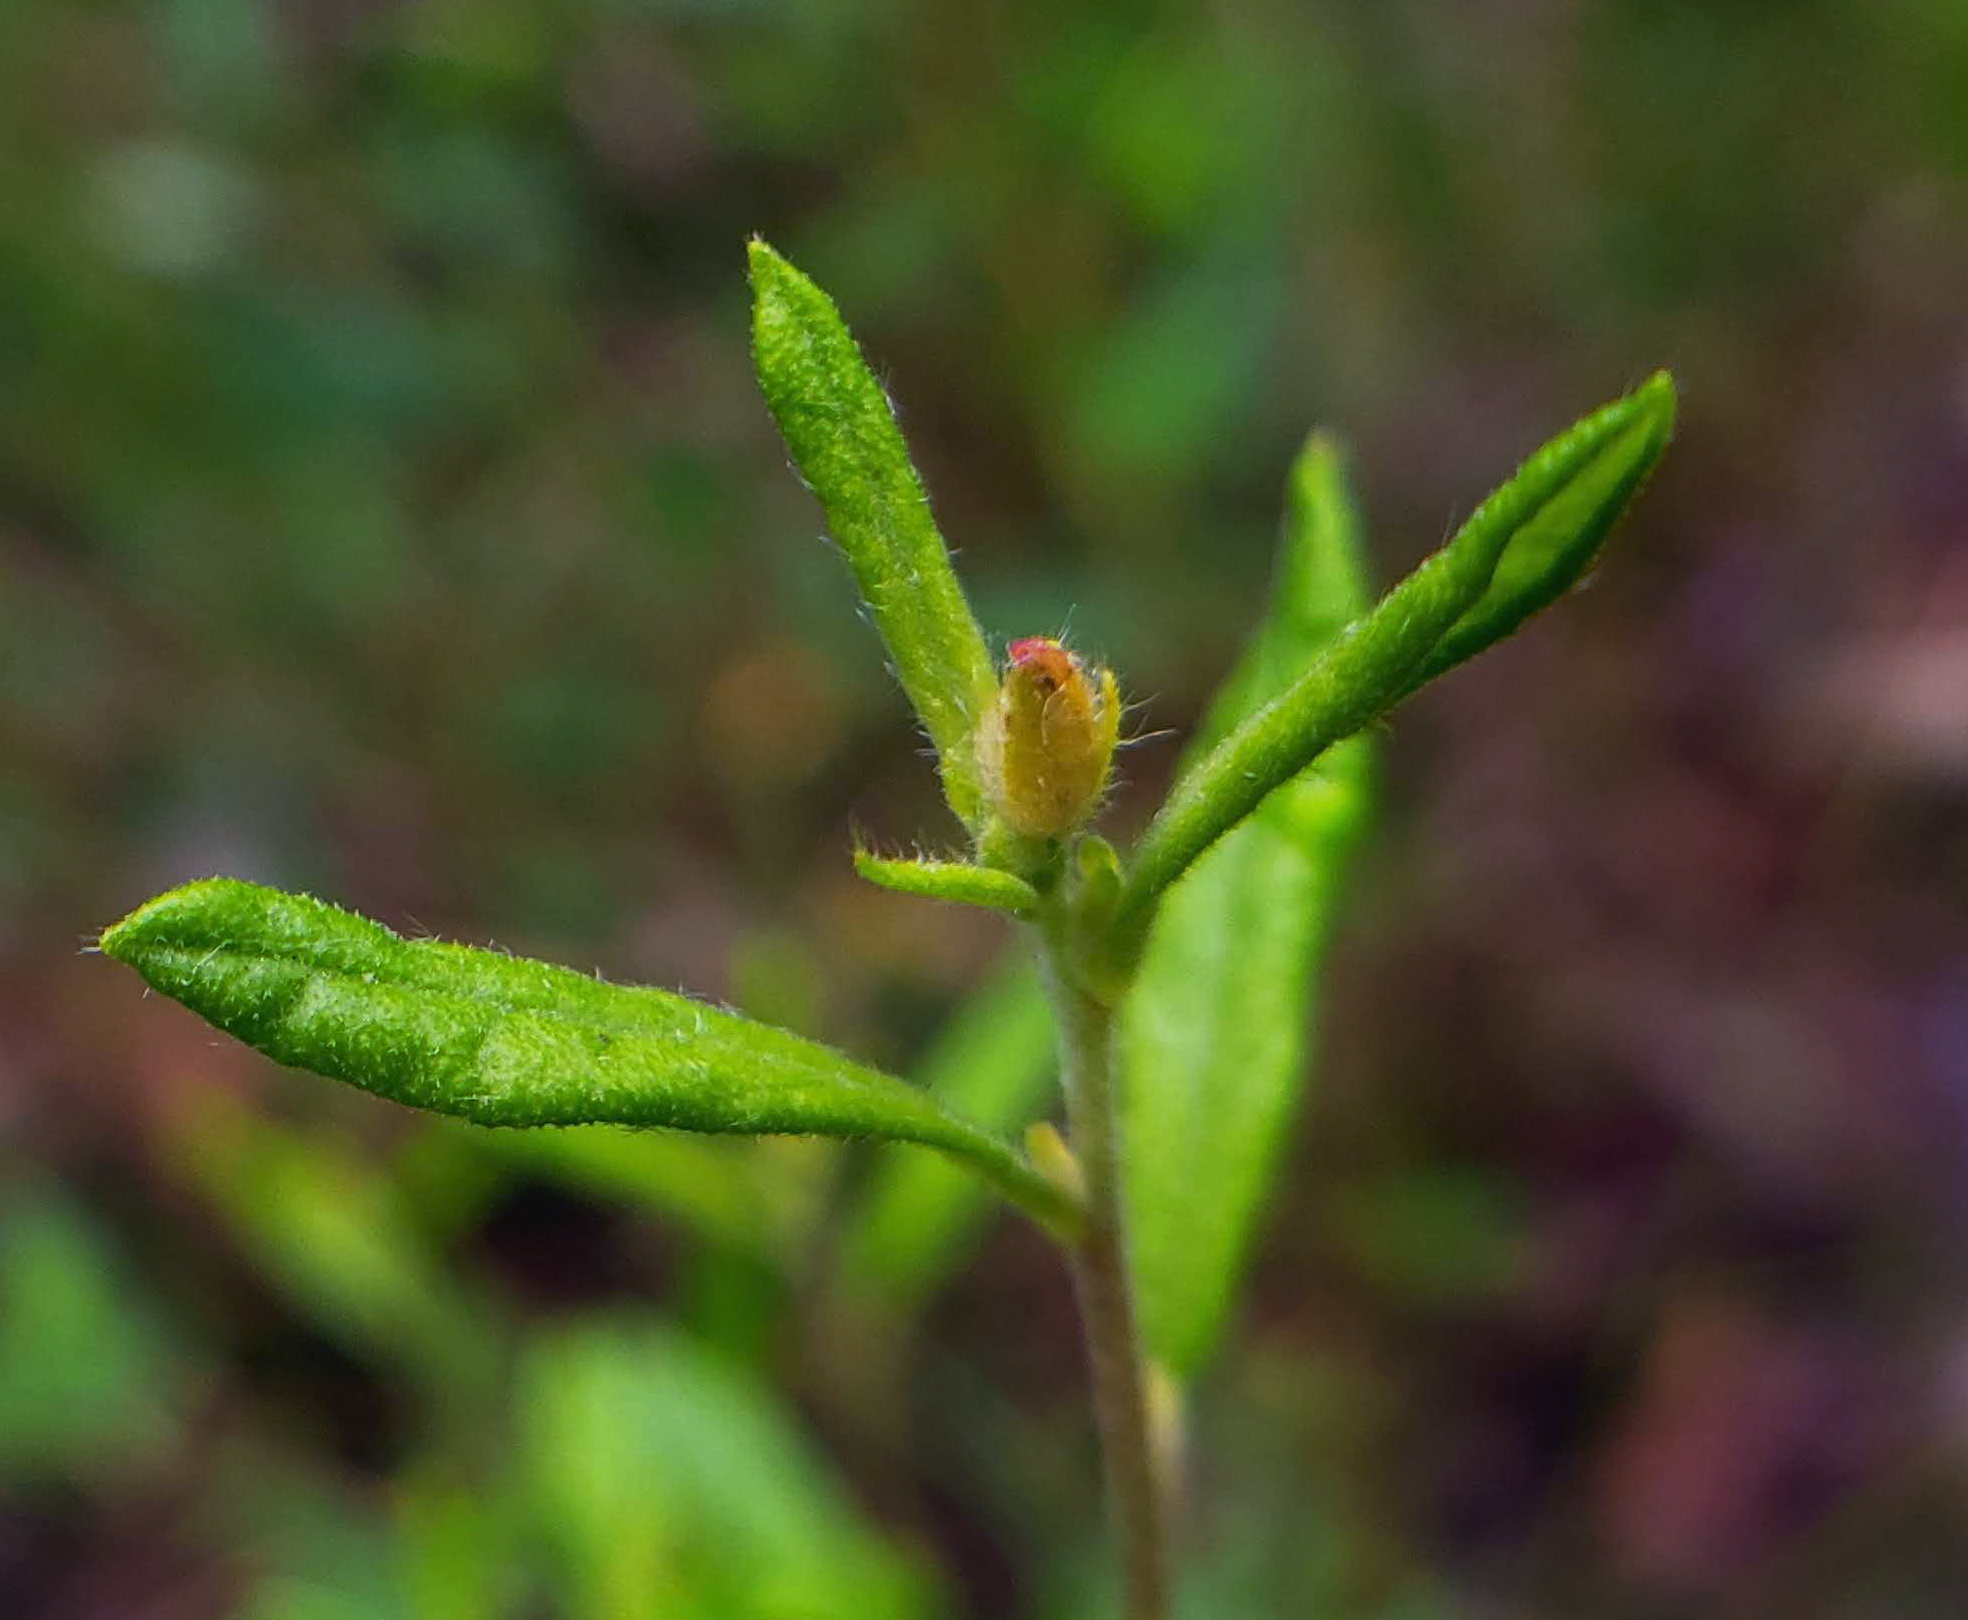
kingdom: Plantae
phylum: Tracheophyta
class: Magnoliopsida
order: Malvales
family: Cistaceae
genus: Crocanthemum
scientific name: Crocanthemum canadense
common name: Canada frostweed
